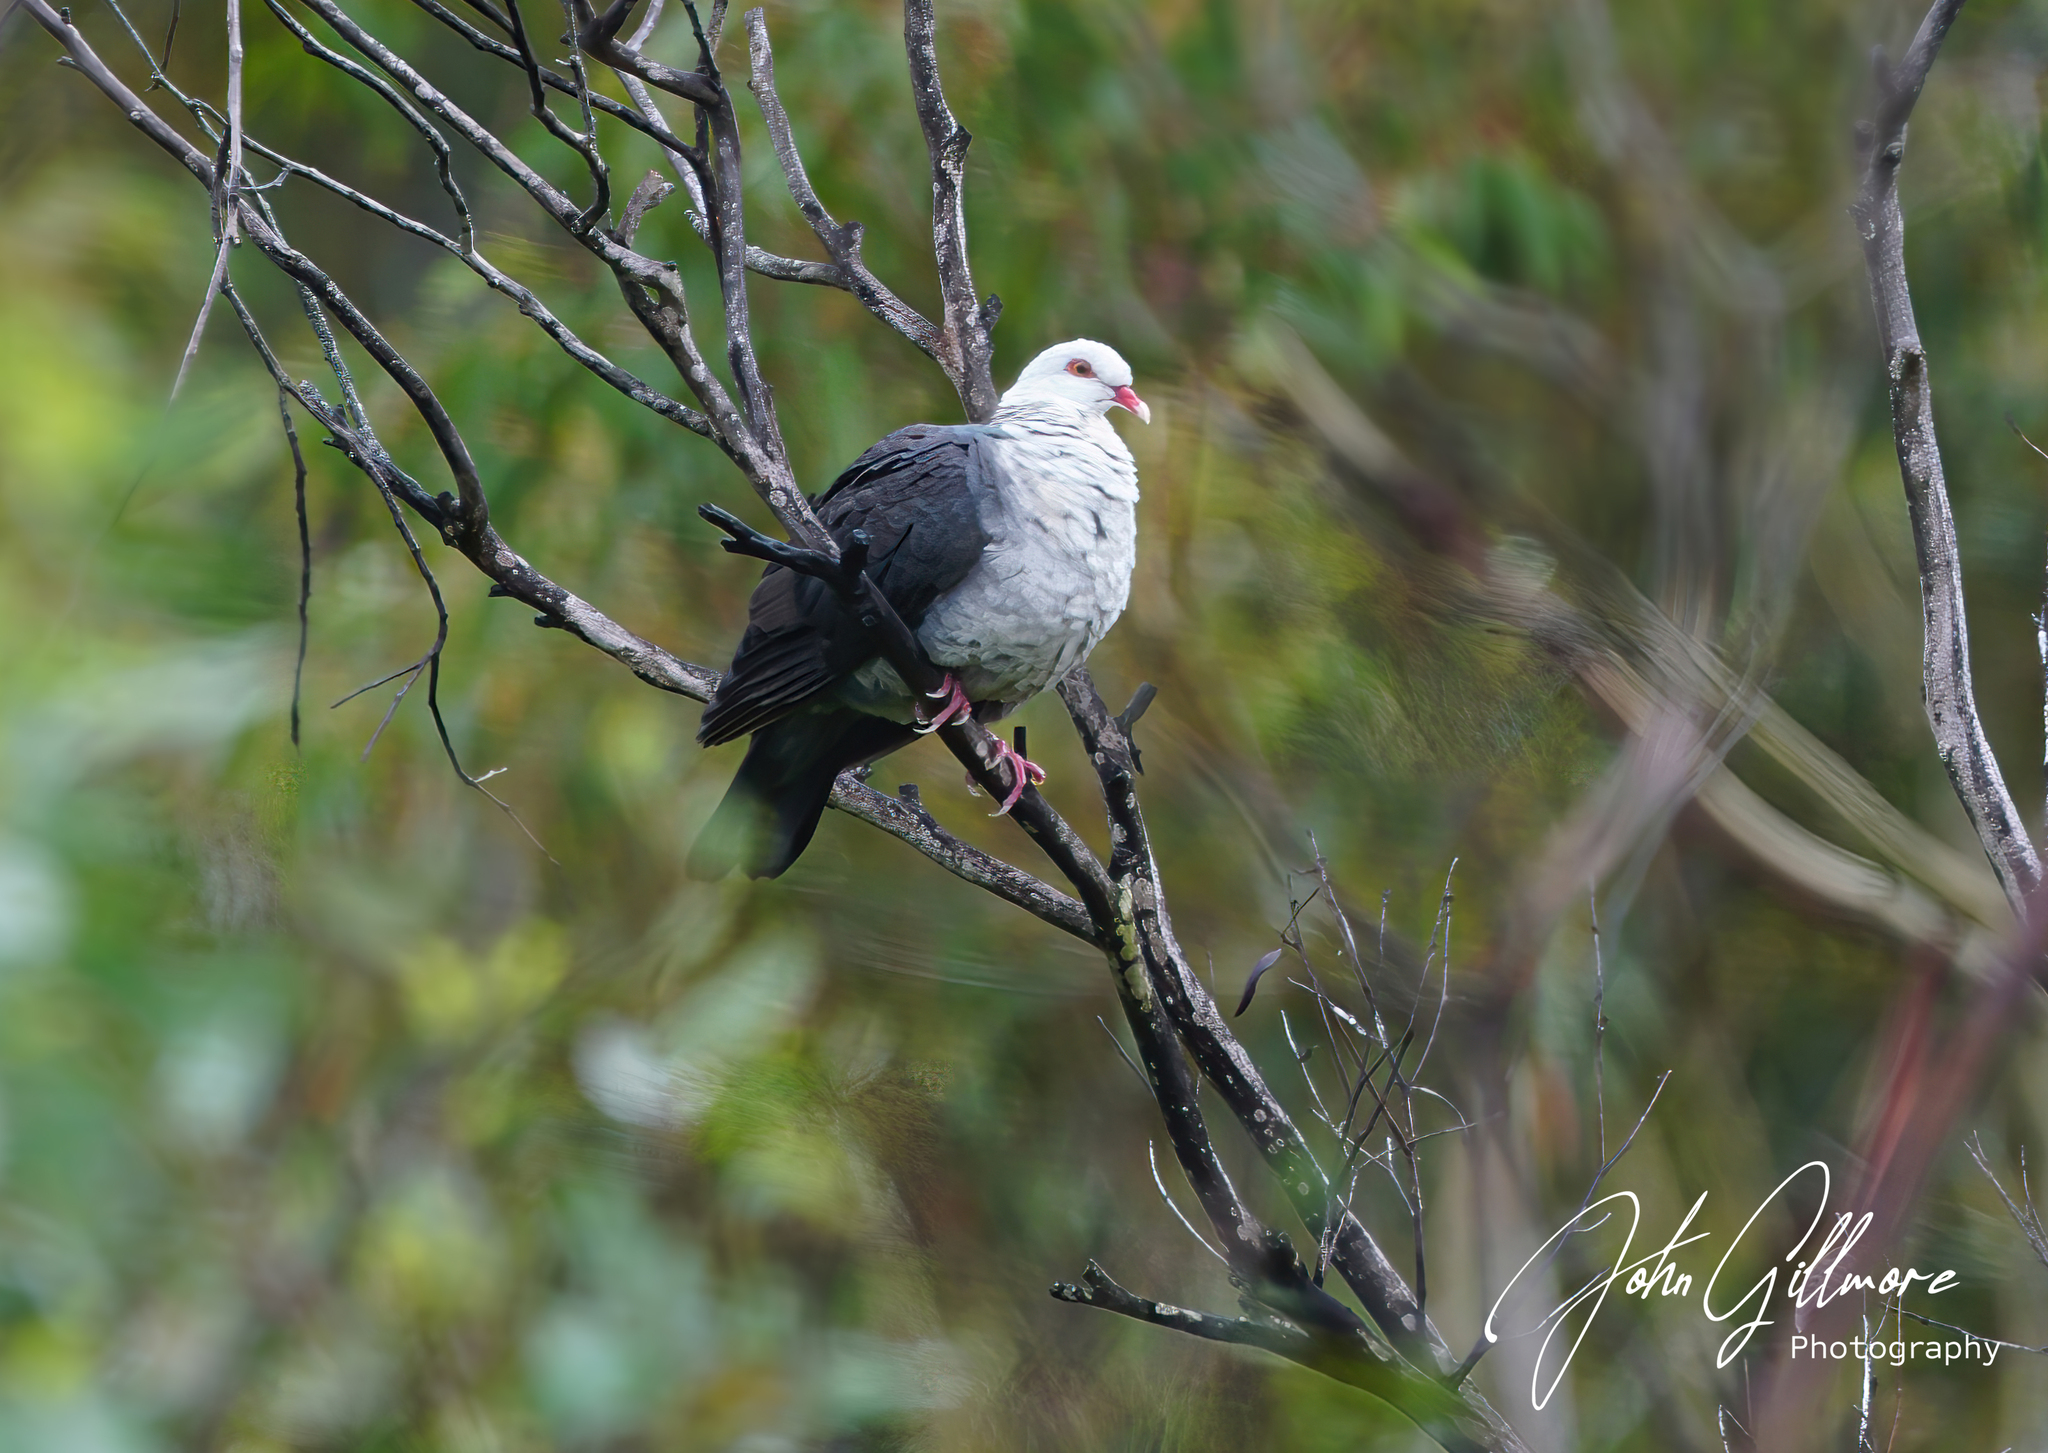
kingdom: Animalia
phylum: Chordata
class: Aves
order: Columbiformes
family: Columbidae
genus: Columba
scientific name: Columba leucomela
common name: White-headed pigeon
